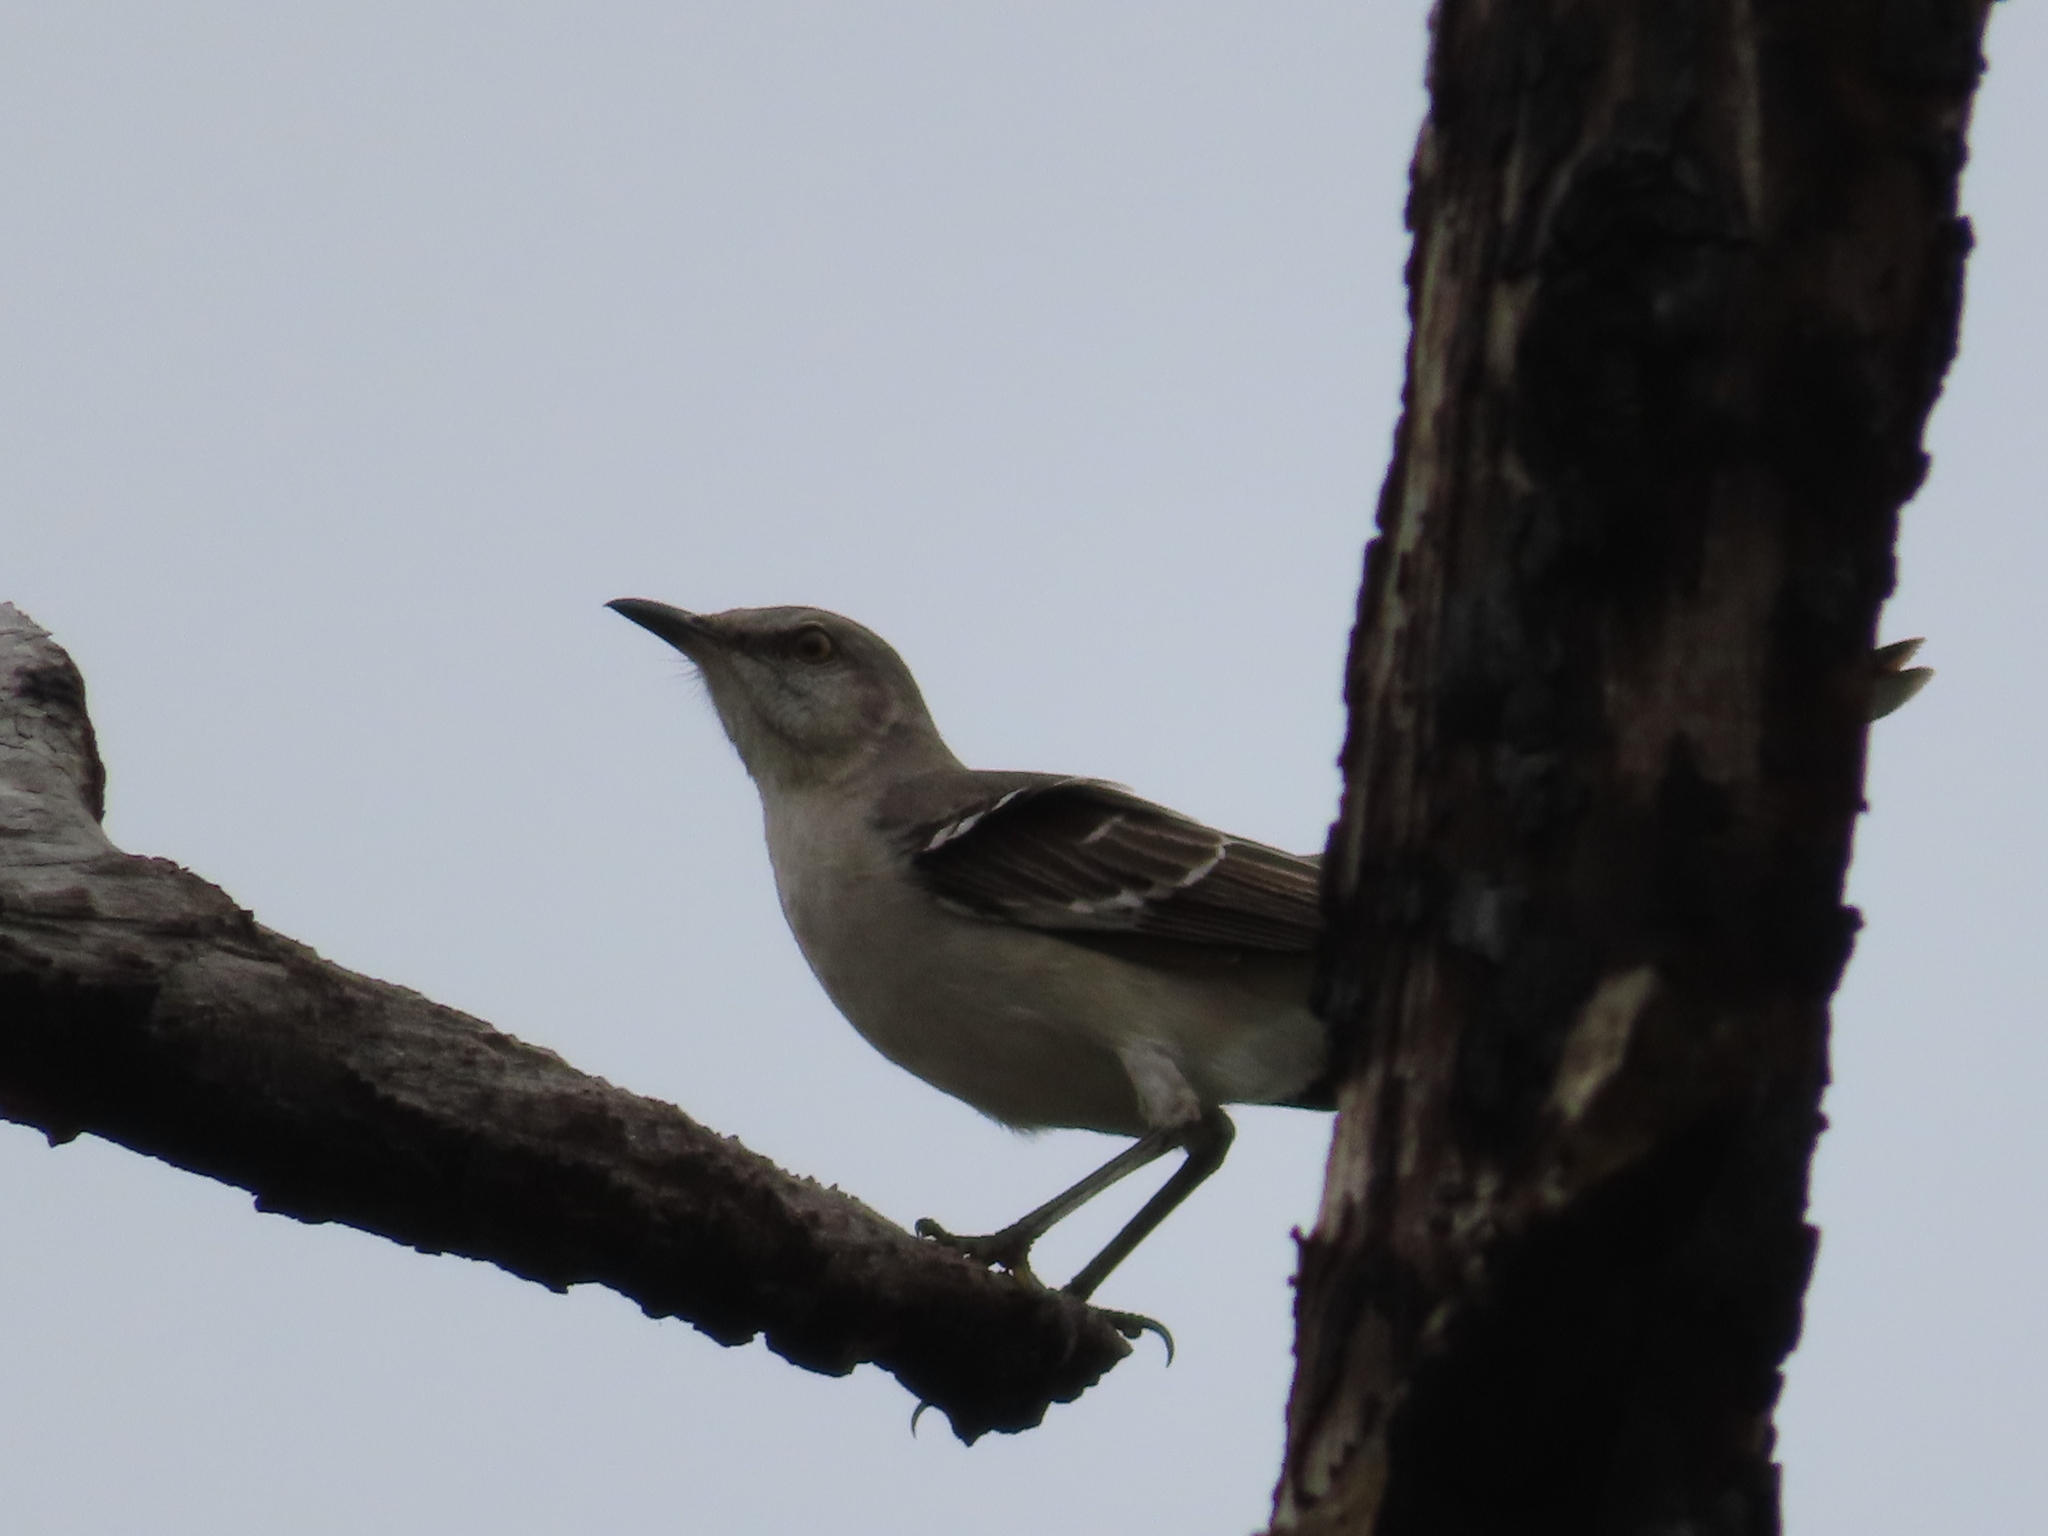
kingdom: Animalia
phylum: Chordata
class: Aves
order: Passeriformes
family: Mimidae
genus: Mimus
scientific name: Mimus polyglottos
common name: Northern mockingbird
